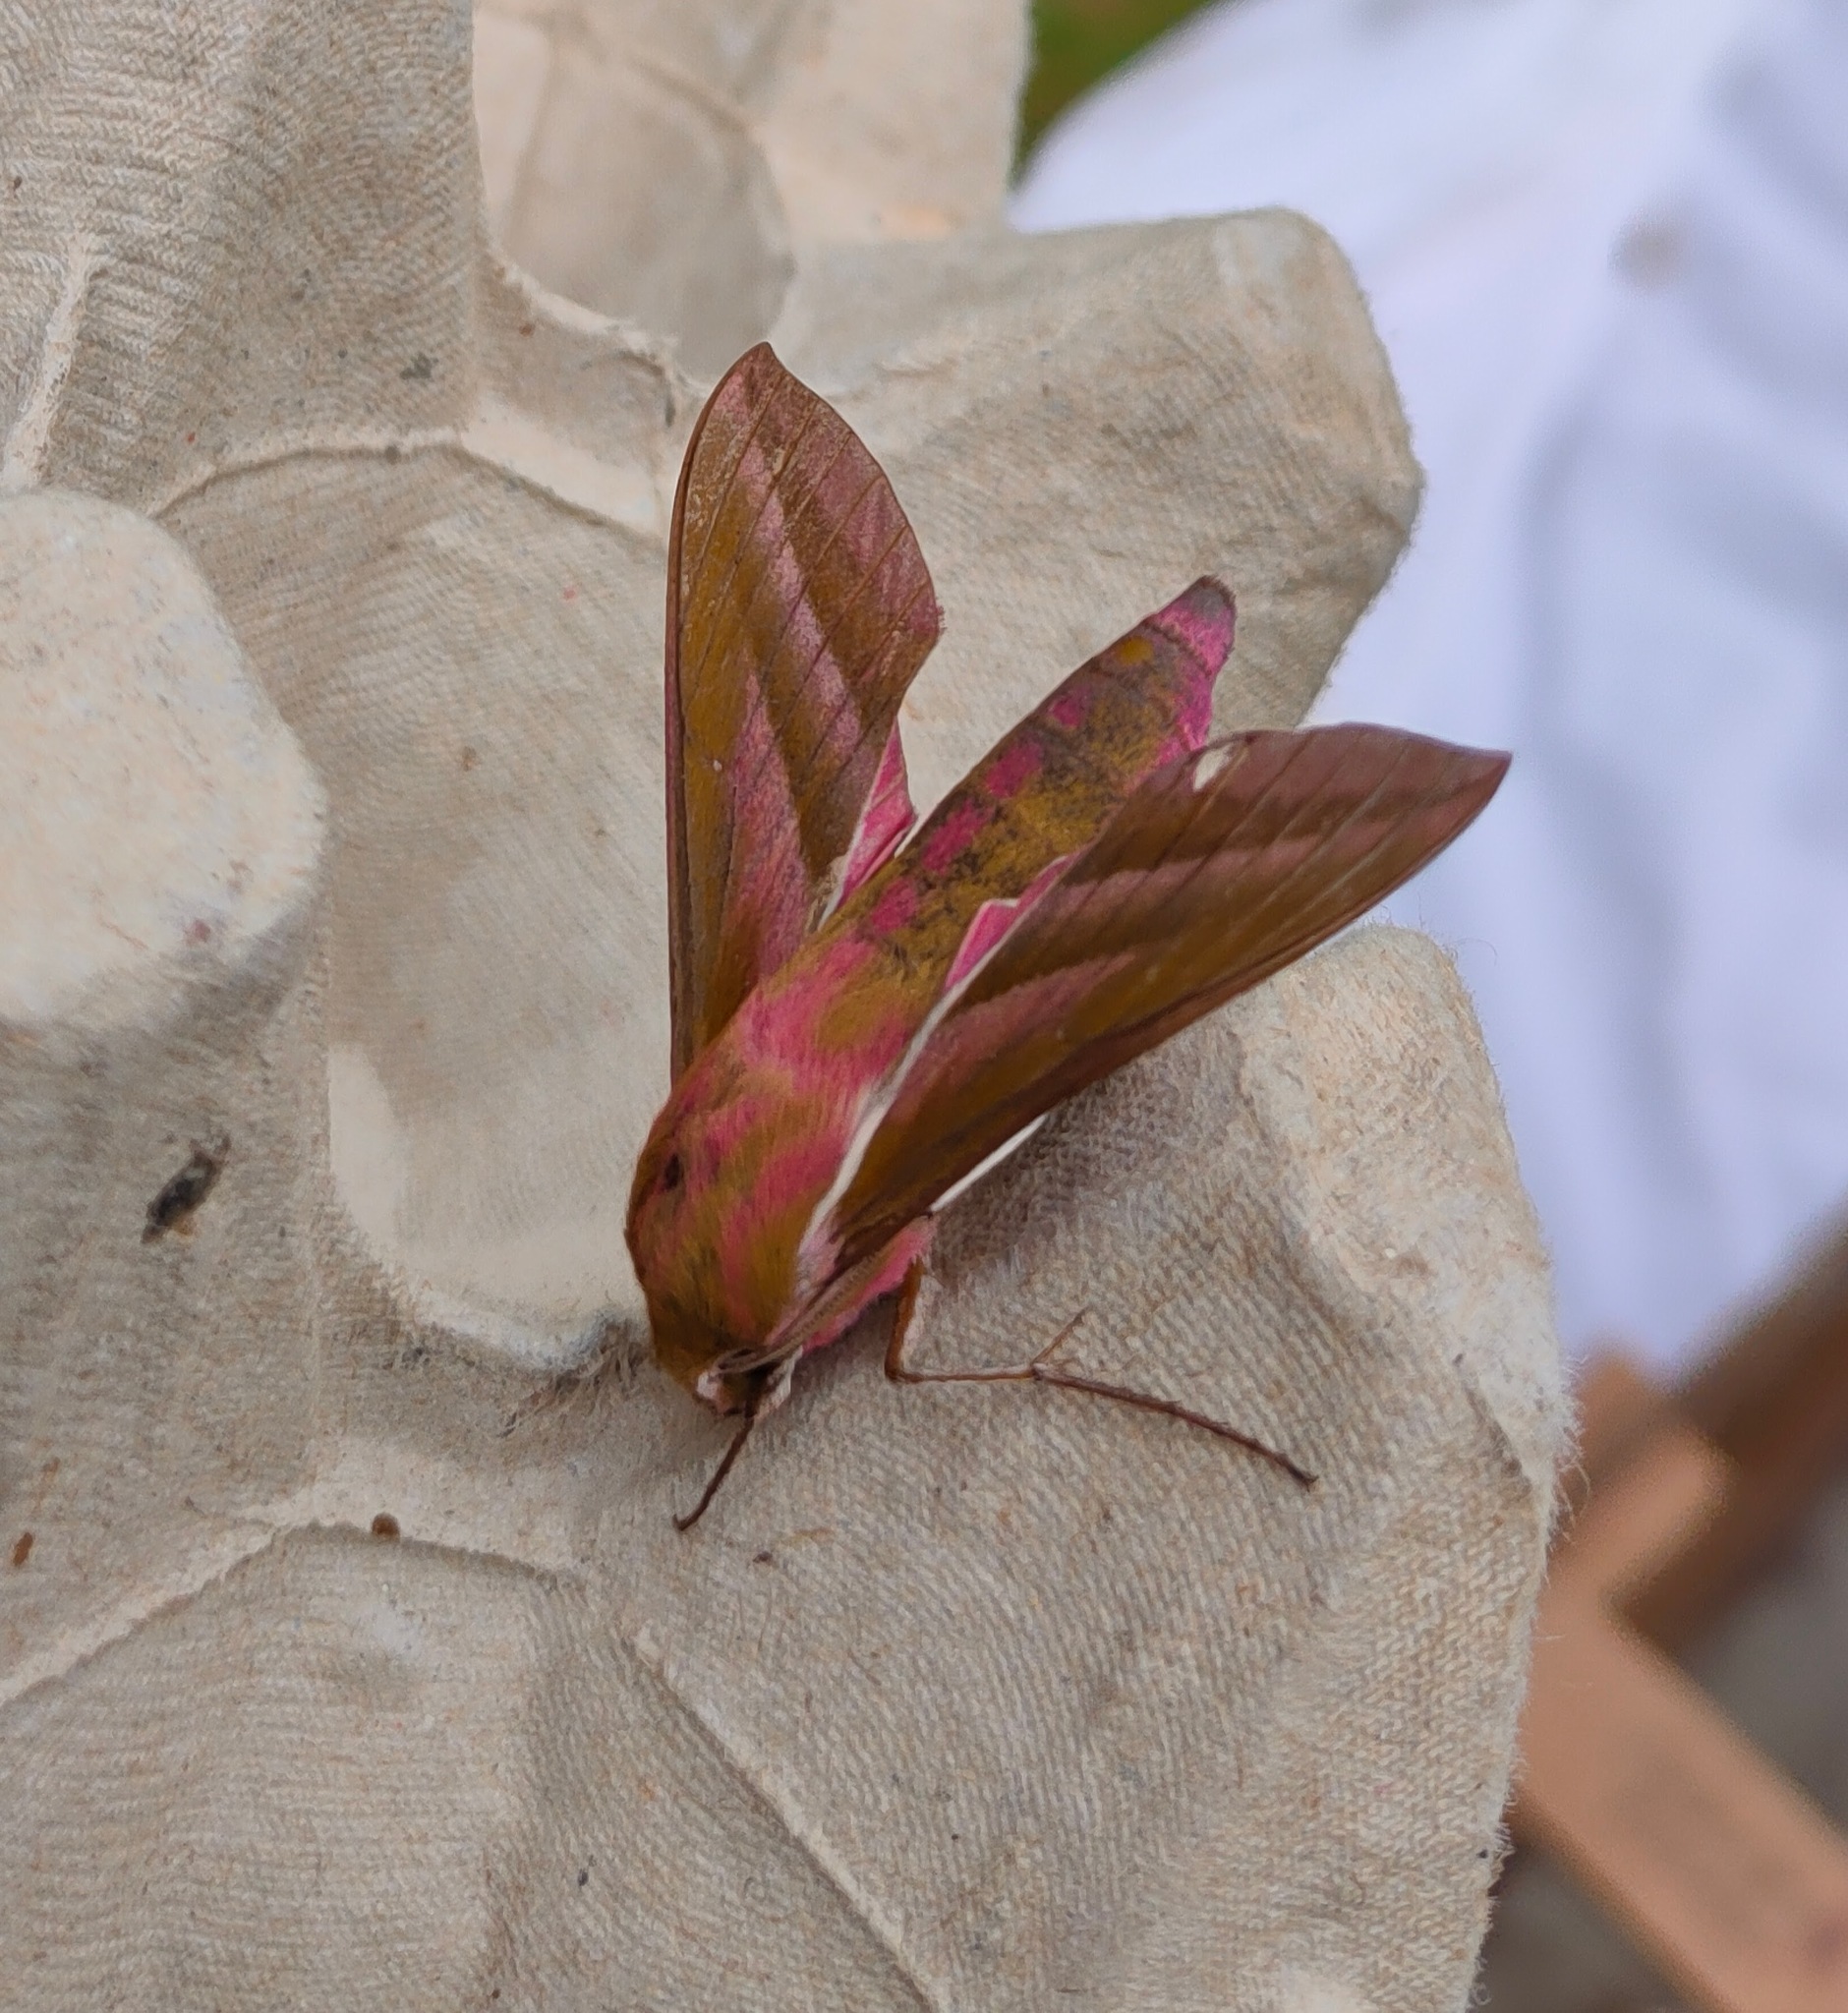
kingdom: Animalia
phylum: Arthropoda
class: Insecta
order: Lepidoptera
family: Sphingidae
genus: Deilephila
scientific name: Deilephila elpenor
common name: Elephant hawk-moth
